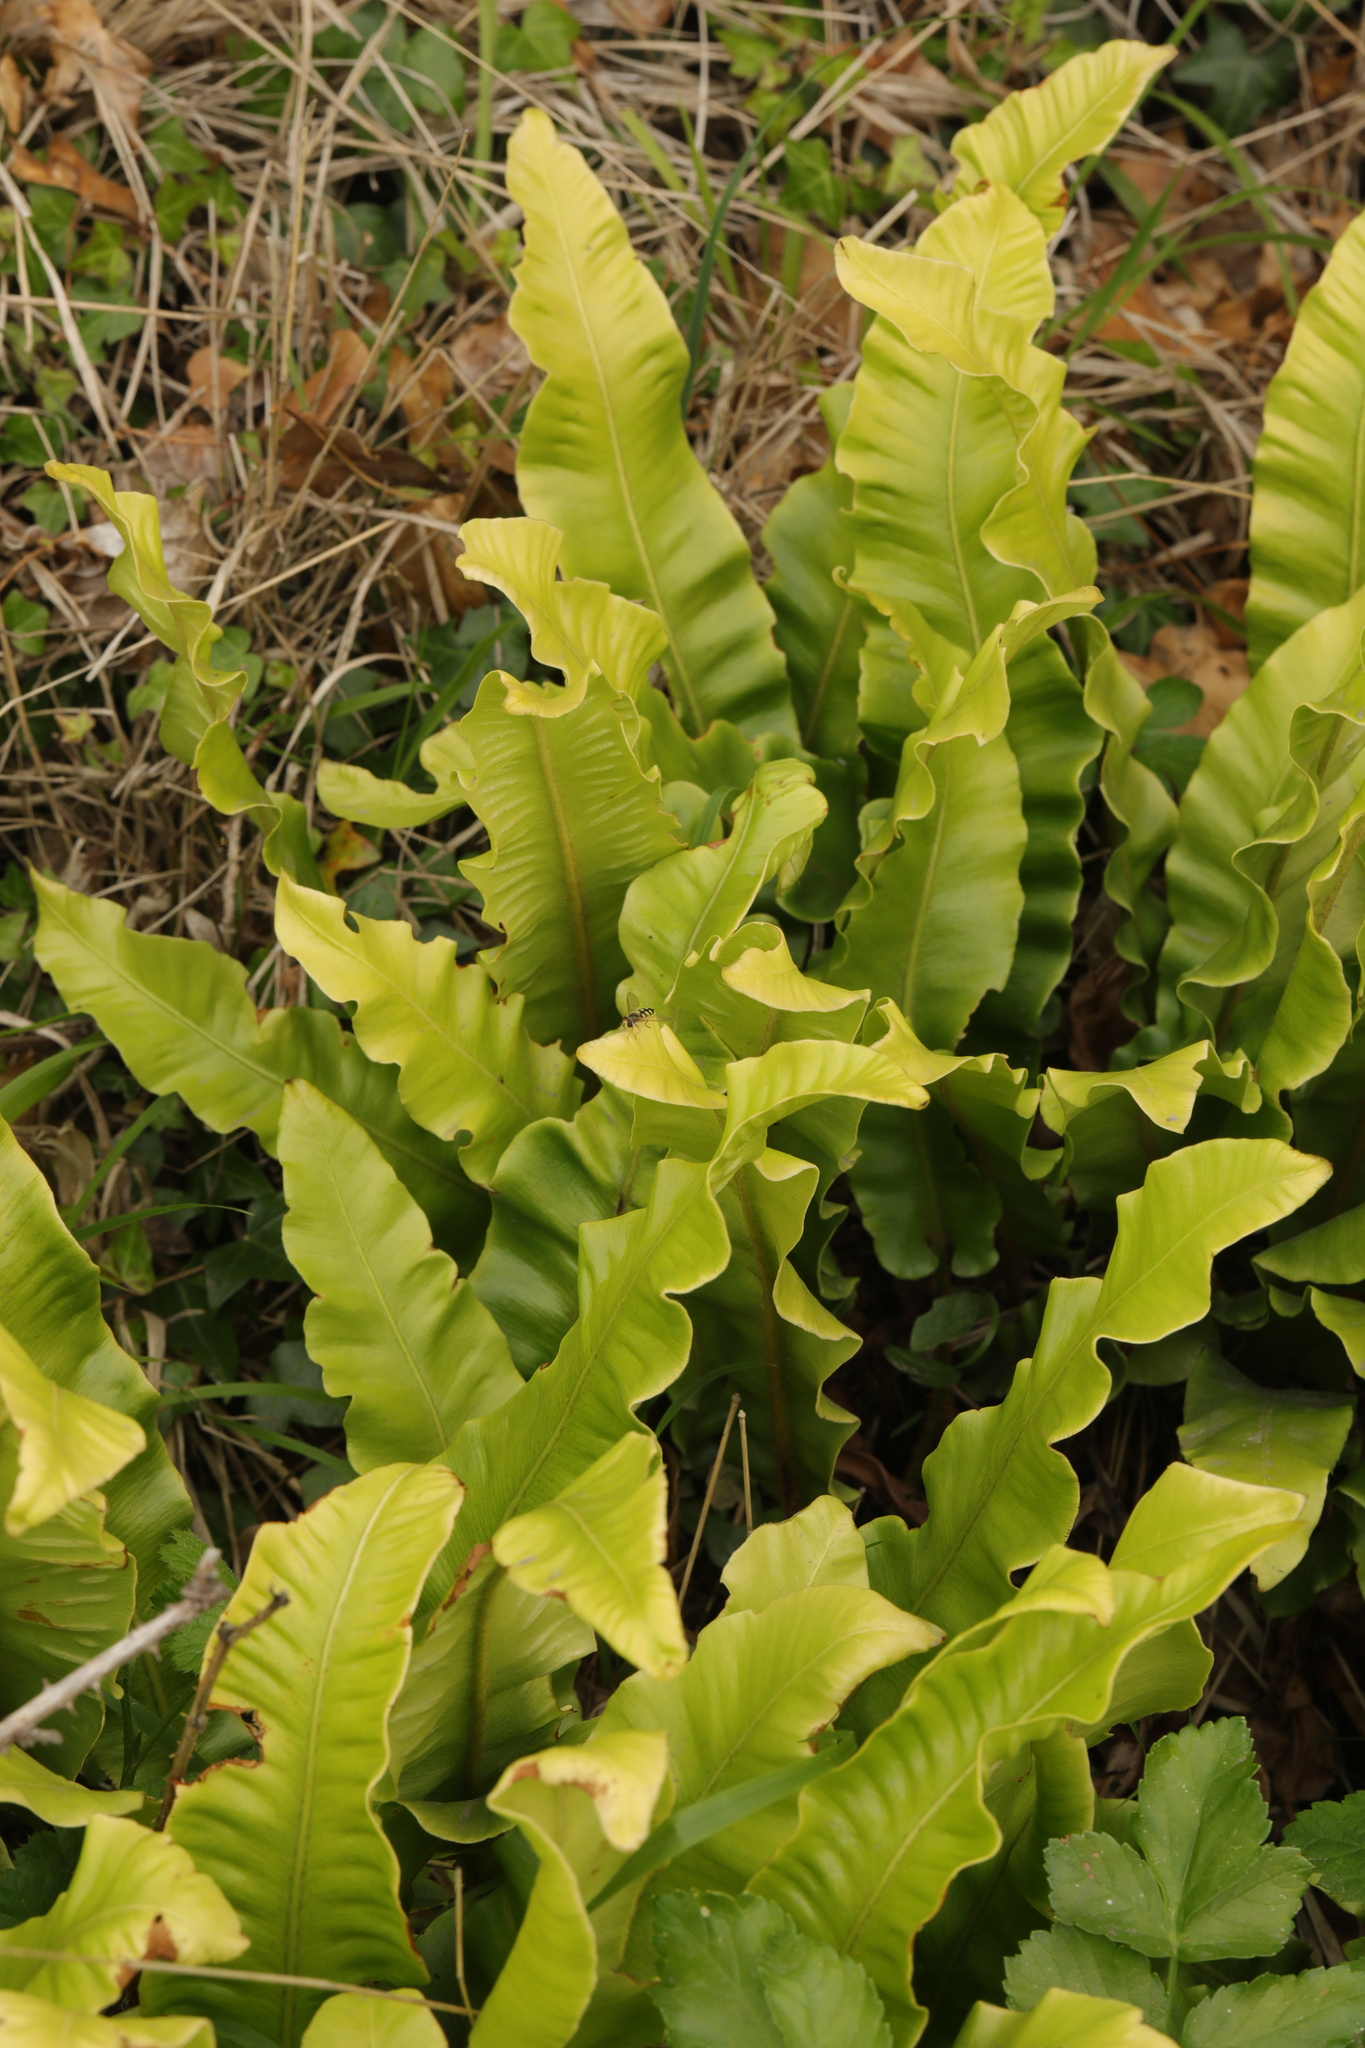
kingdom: Plantae
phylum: Tracheophyta
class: Polypodiopsida
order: Polypodiales
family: Aspleniaceae
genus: Asplenium
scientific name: Asplenium scolopendrium
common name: Hart's-tongue fern
